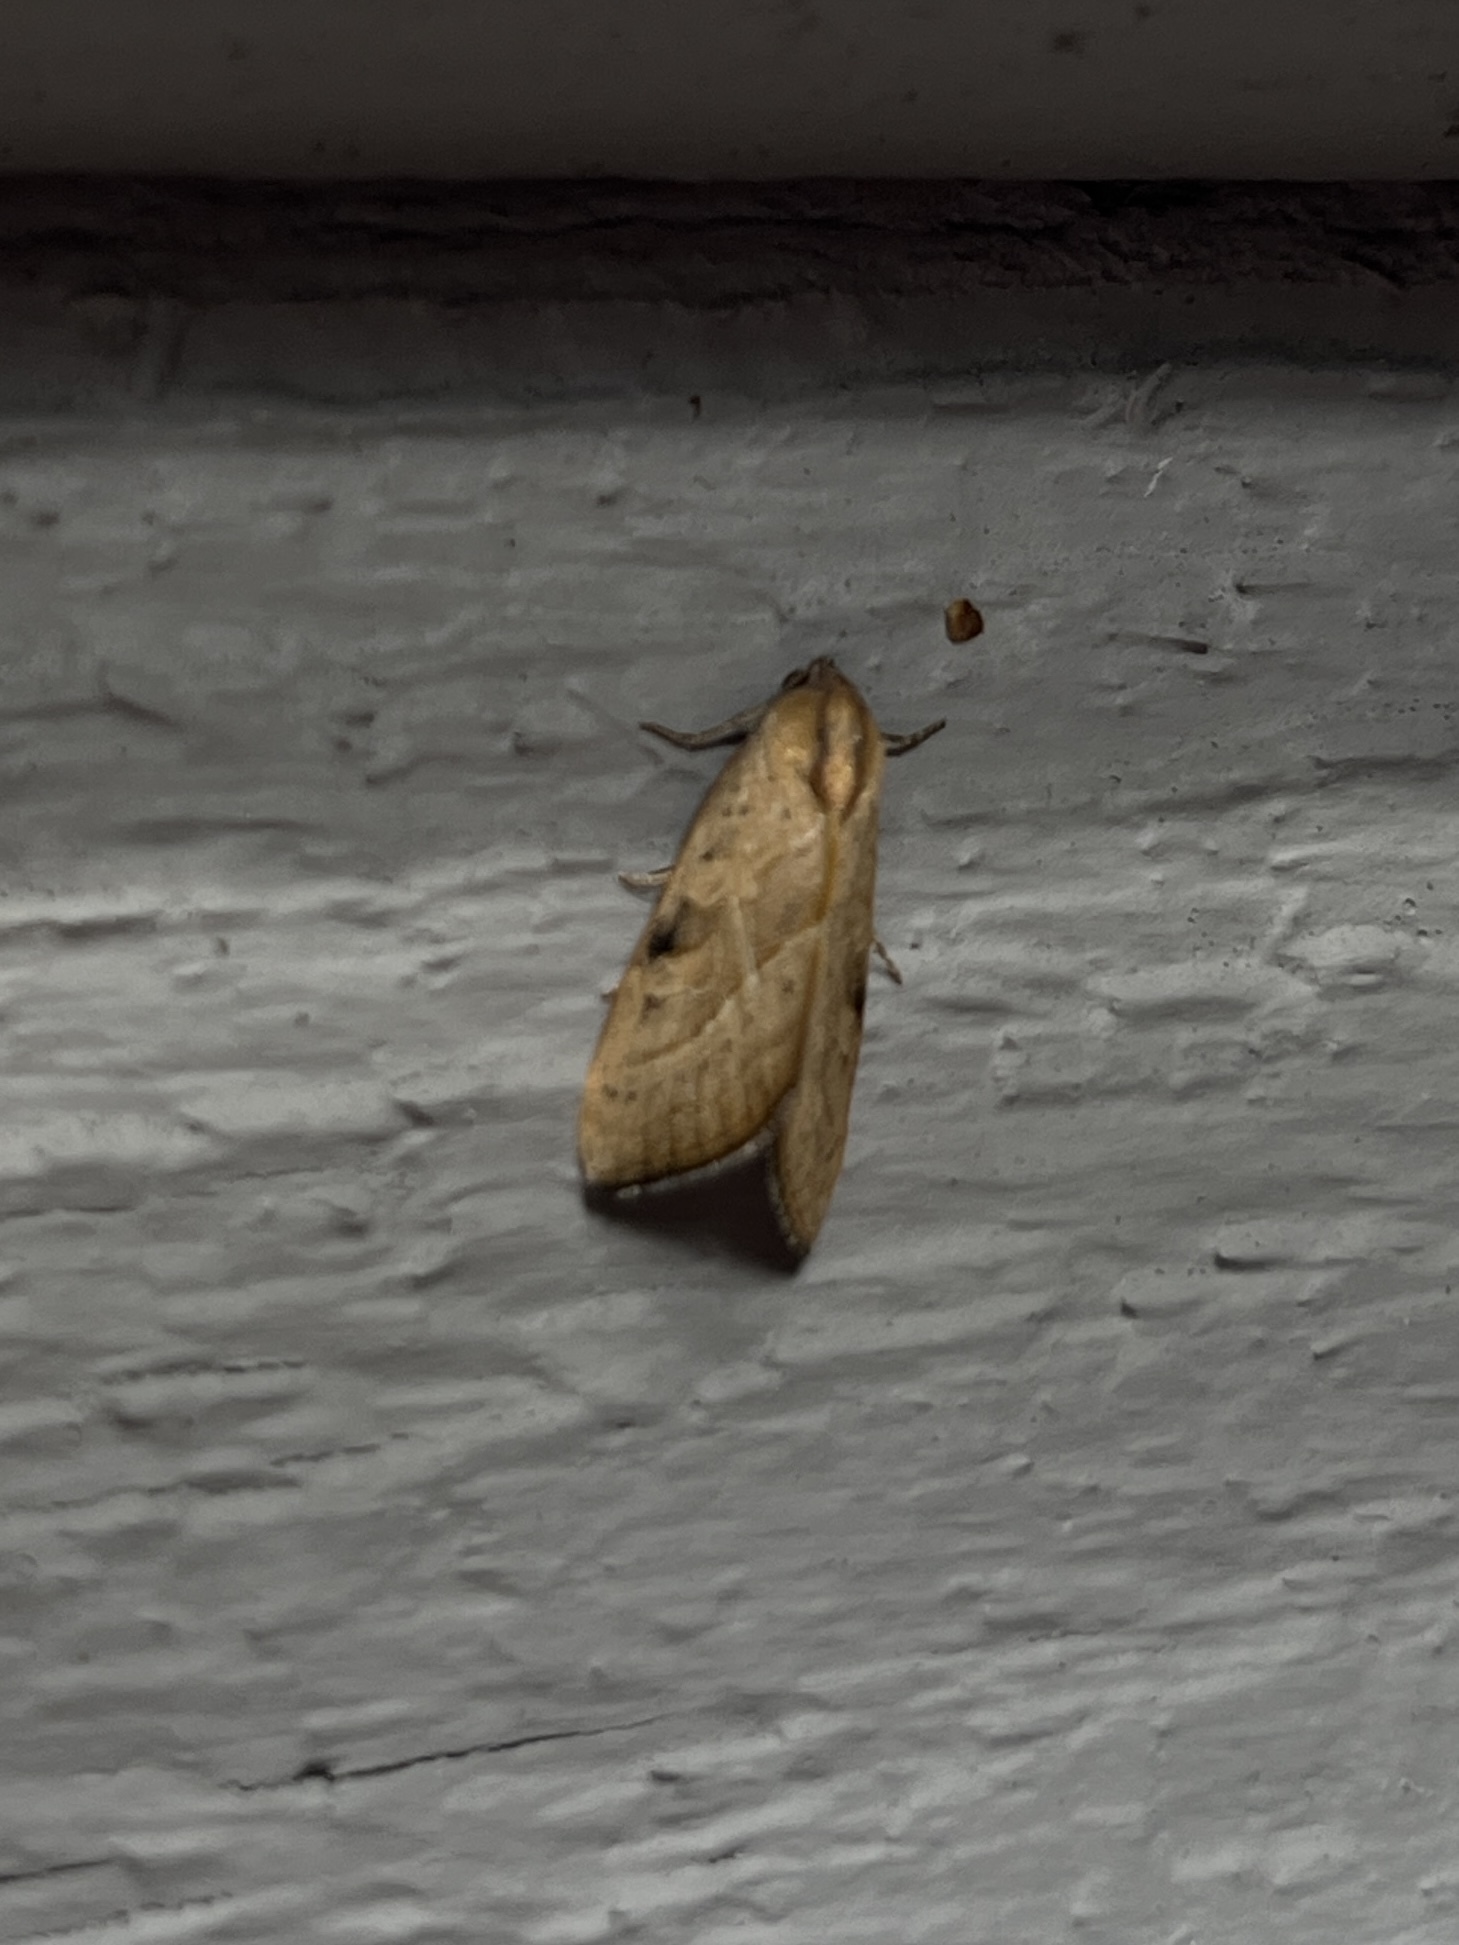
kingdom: Animalia
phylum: Arthropoda
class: Insecta
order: Lepidoptera
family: Noctuidae
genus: Galgula
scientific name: Galgula partita
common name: Wedgeling
